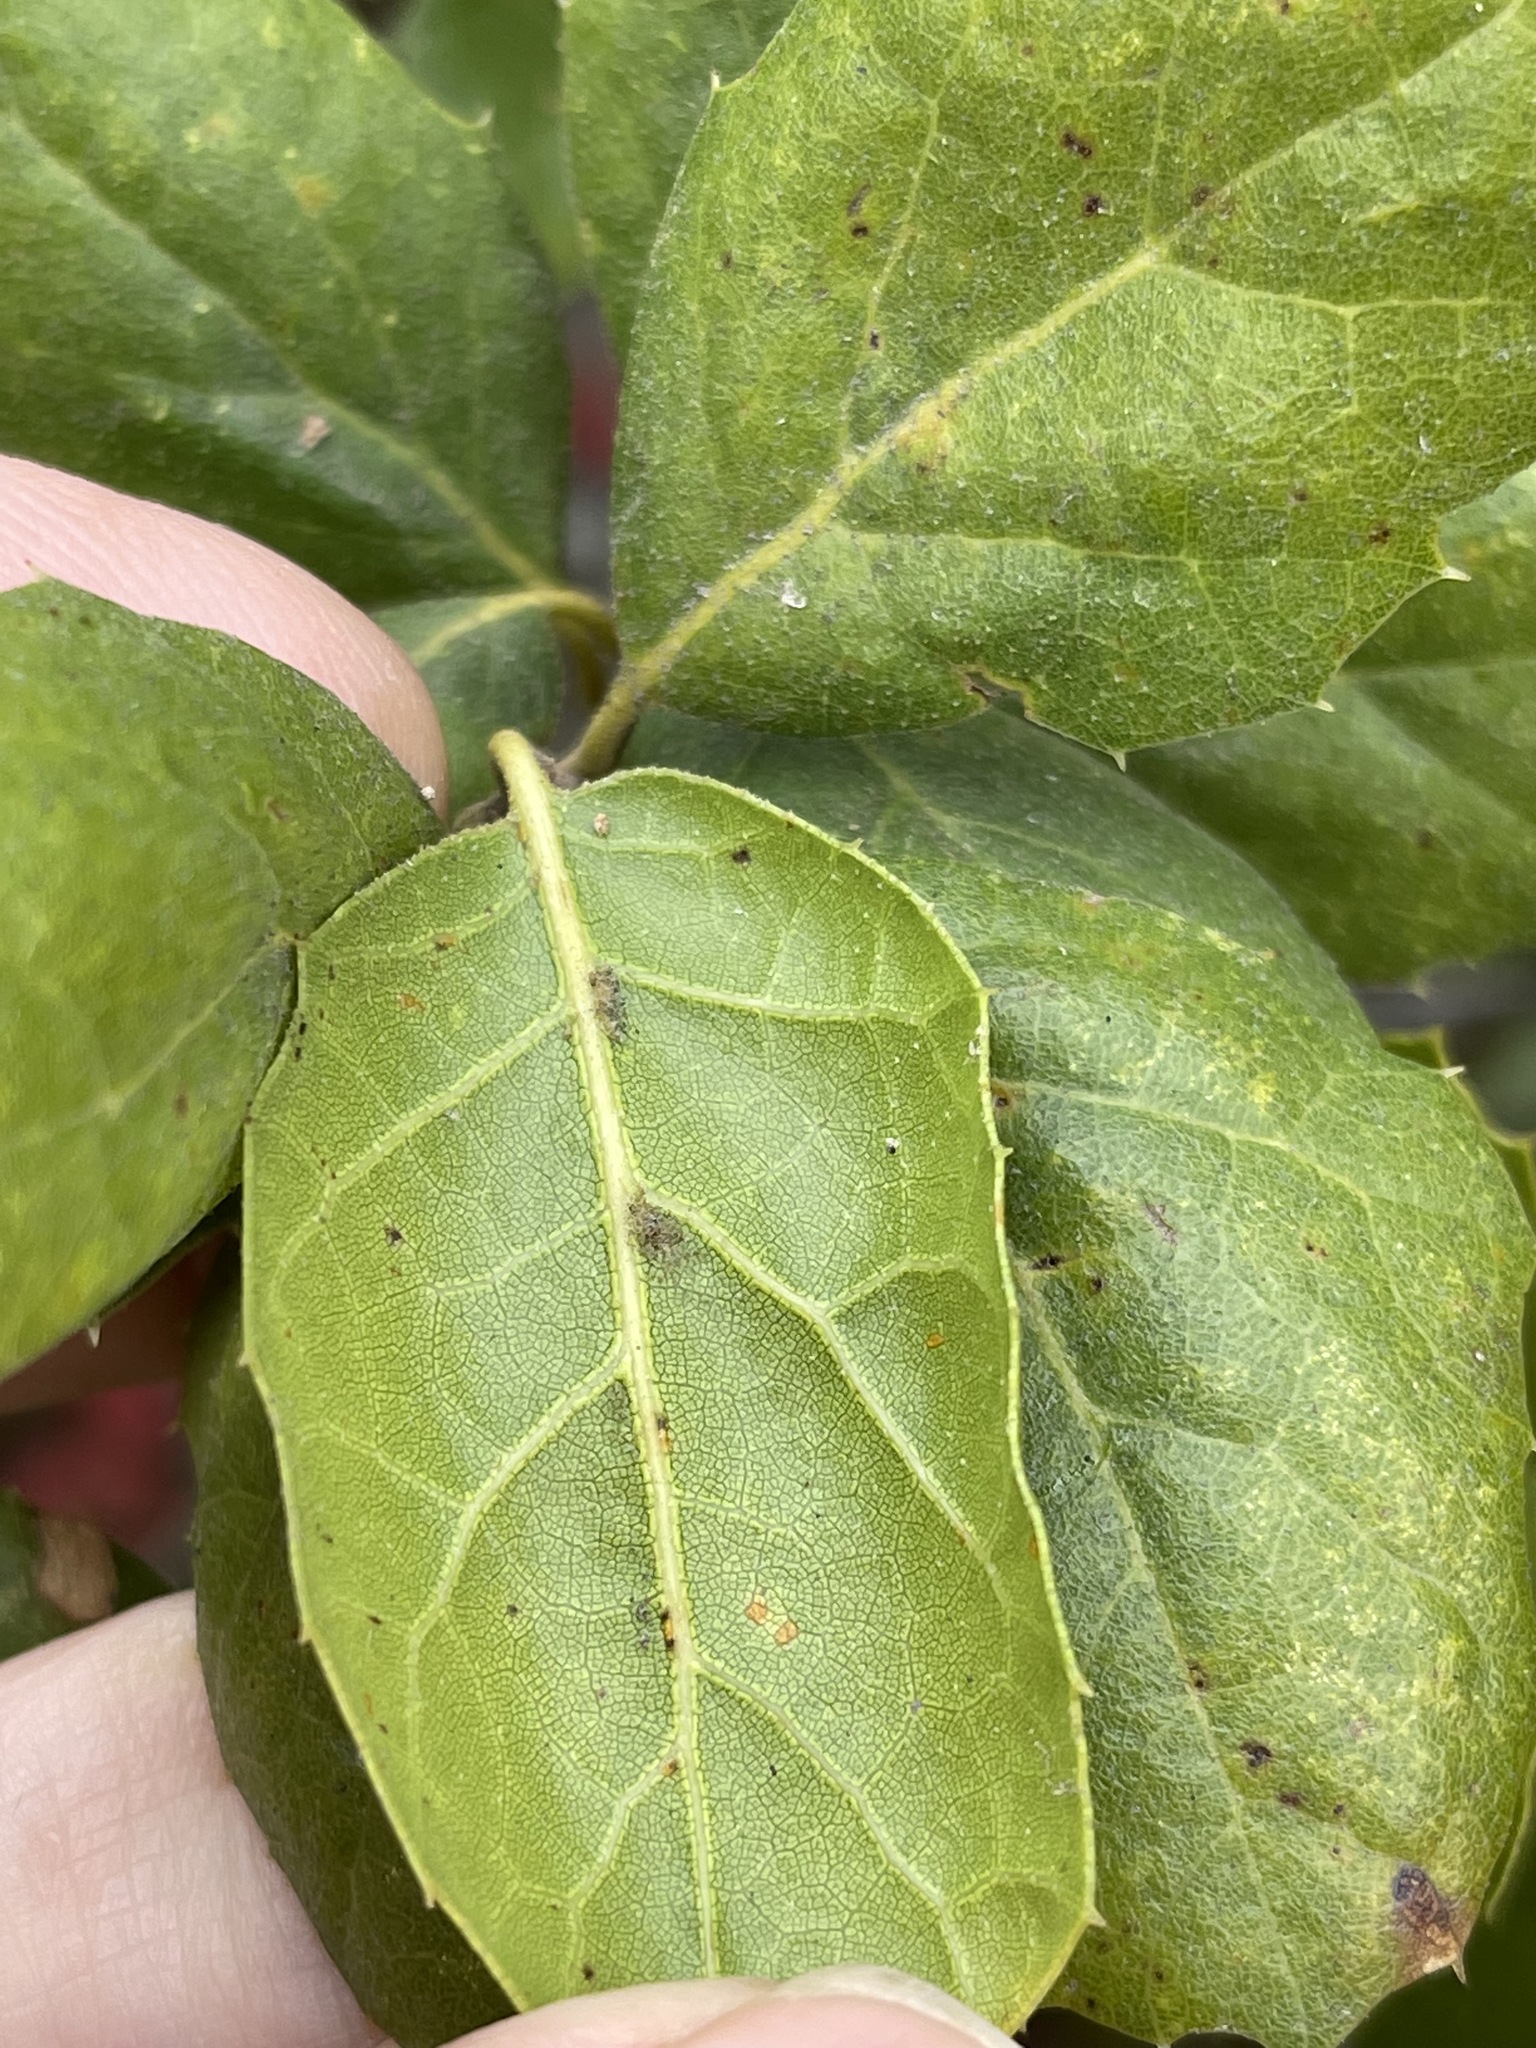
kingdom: Plantae
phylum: Tracheophyta
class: Magnoliopsida
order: Fagales
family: Fagaceae
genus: Quercus
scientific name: Quercus agrifolia
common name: California live oak
